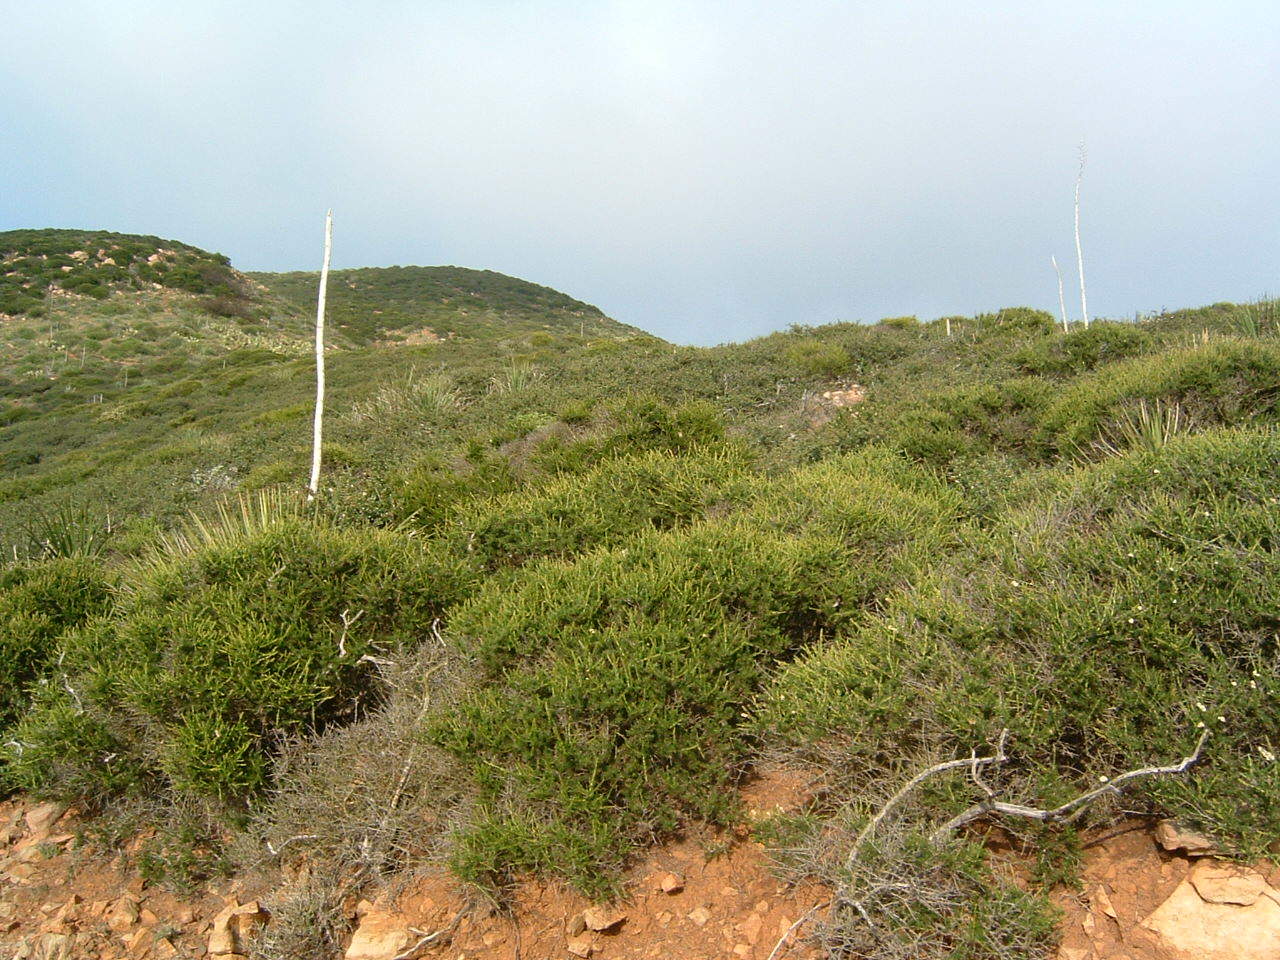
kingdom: Plantae
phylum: Tracheophyta
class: Magnoliopsida
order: Rosales
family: Rosaceae
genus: Adenostoma
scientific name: Adenostoma fasciculatum
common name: Chamise
